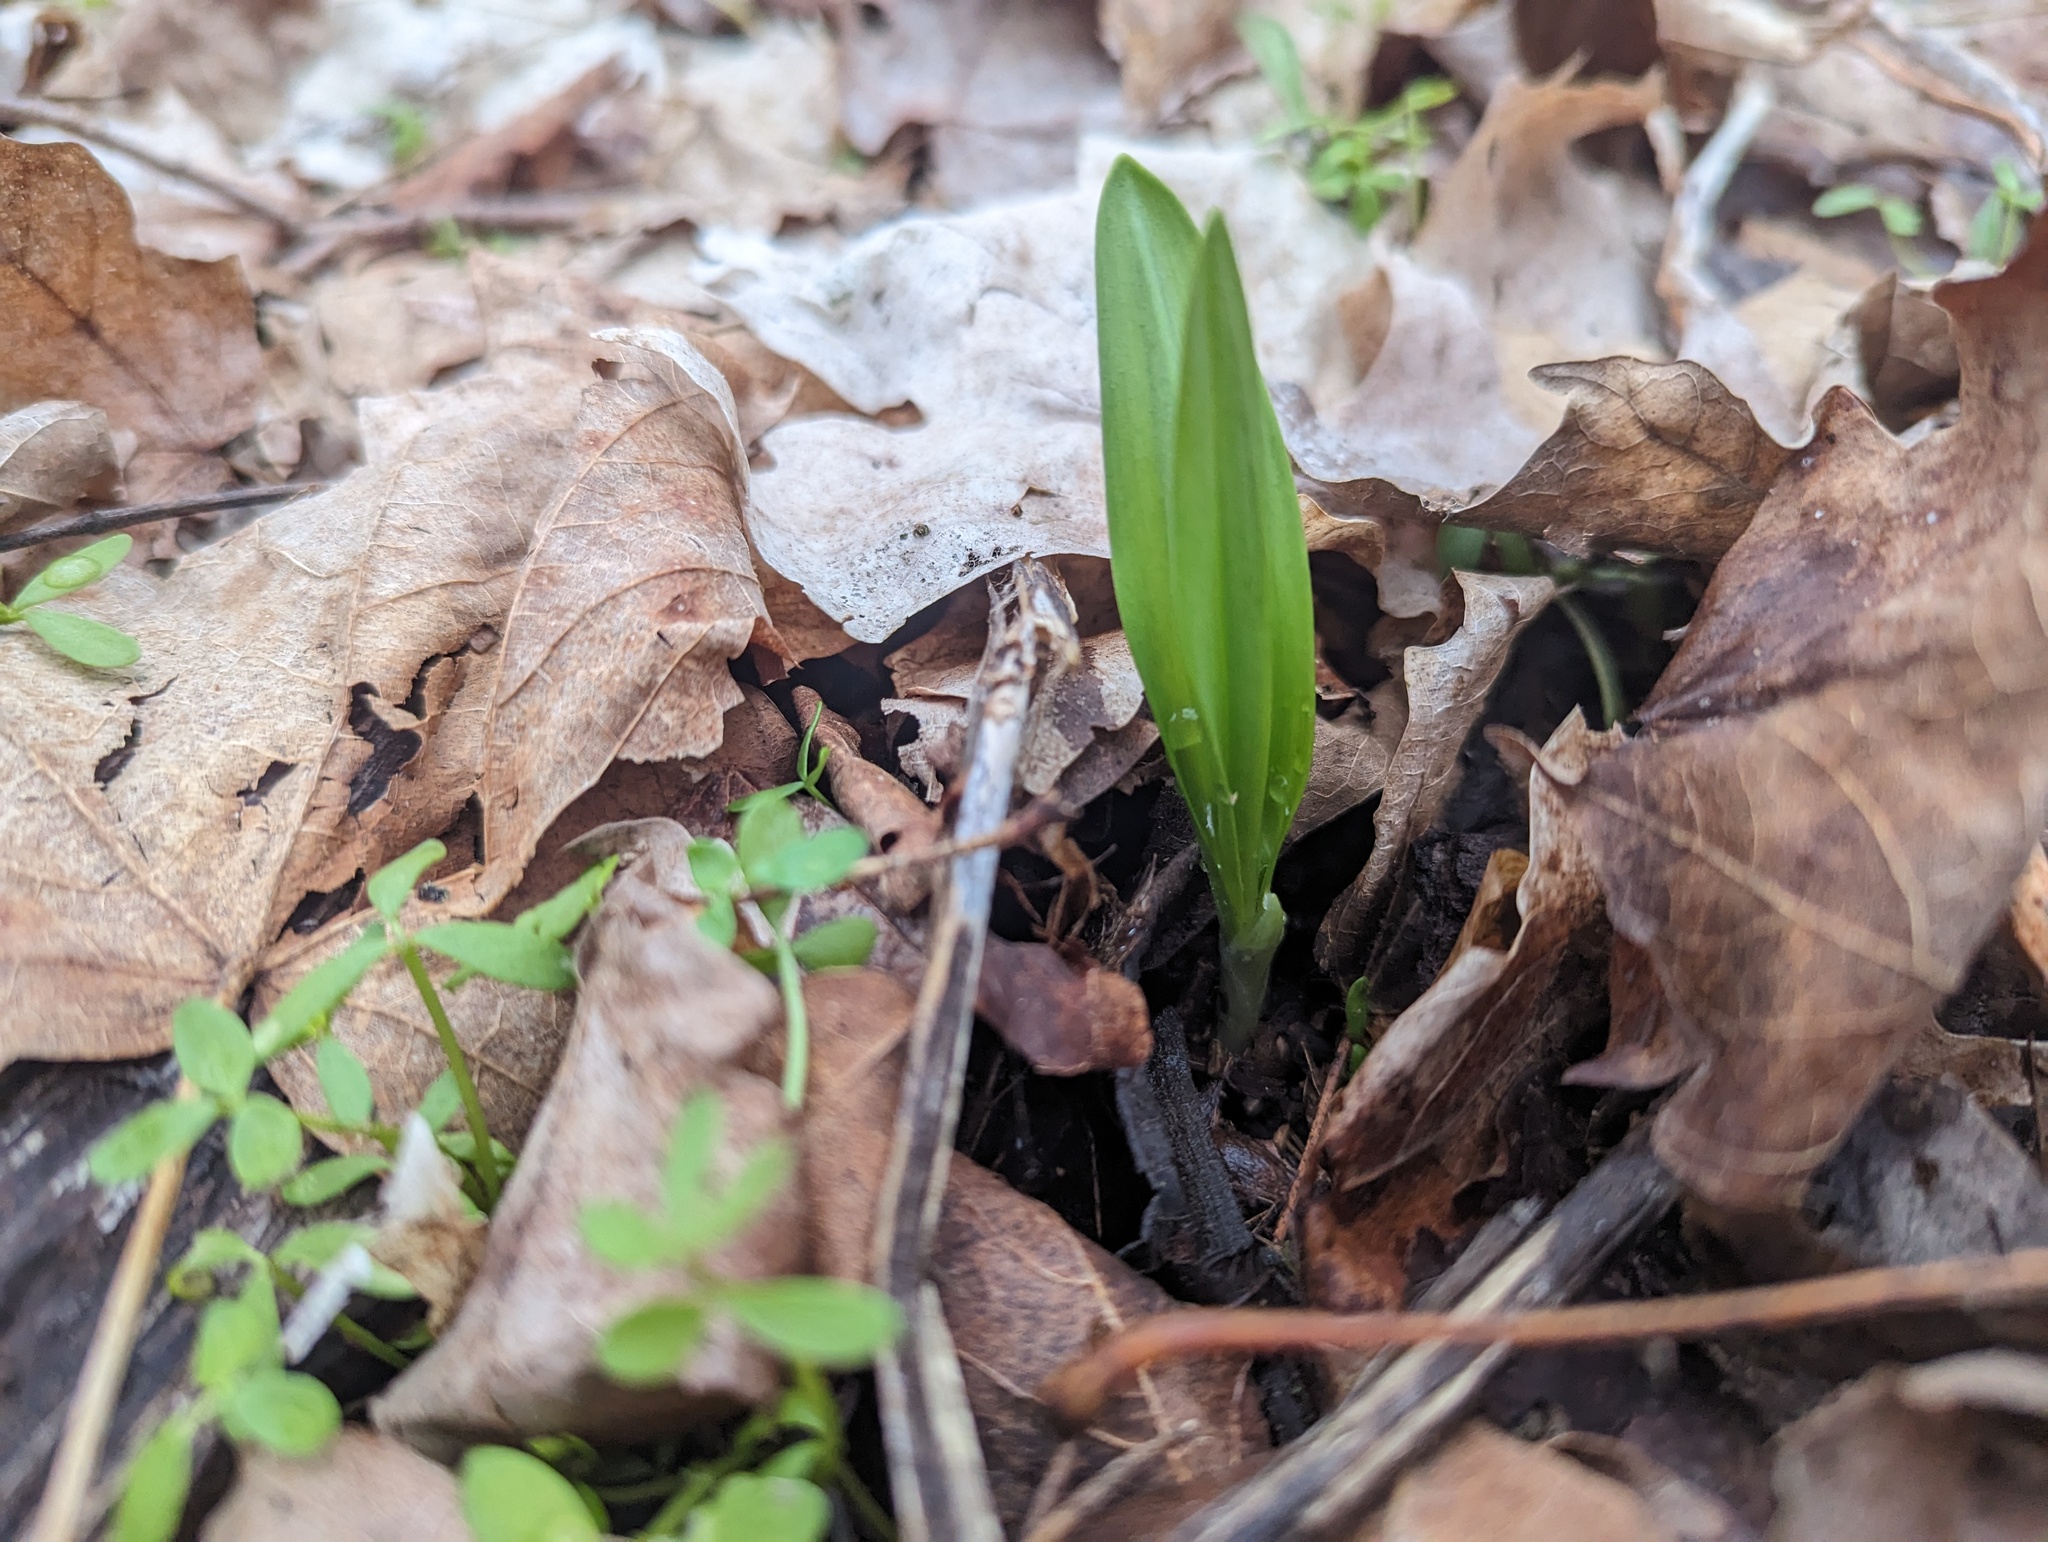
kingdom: Plantae
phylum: Tracheophyta
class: Liliopsida
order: Asparagales
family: Amaryllidaceae
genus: Allium
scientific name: Allium tricoccum
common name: Ramp
